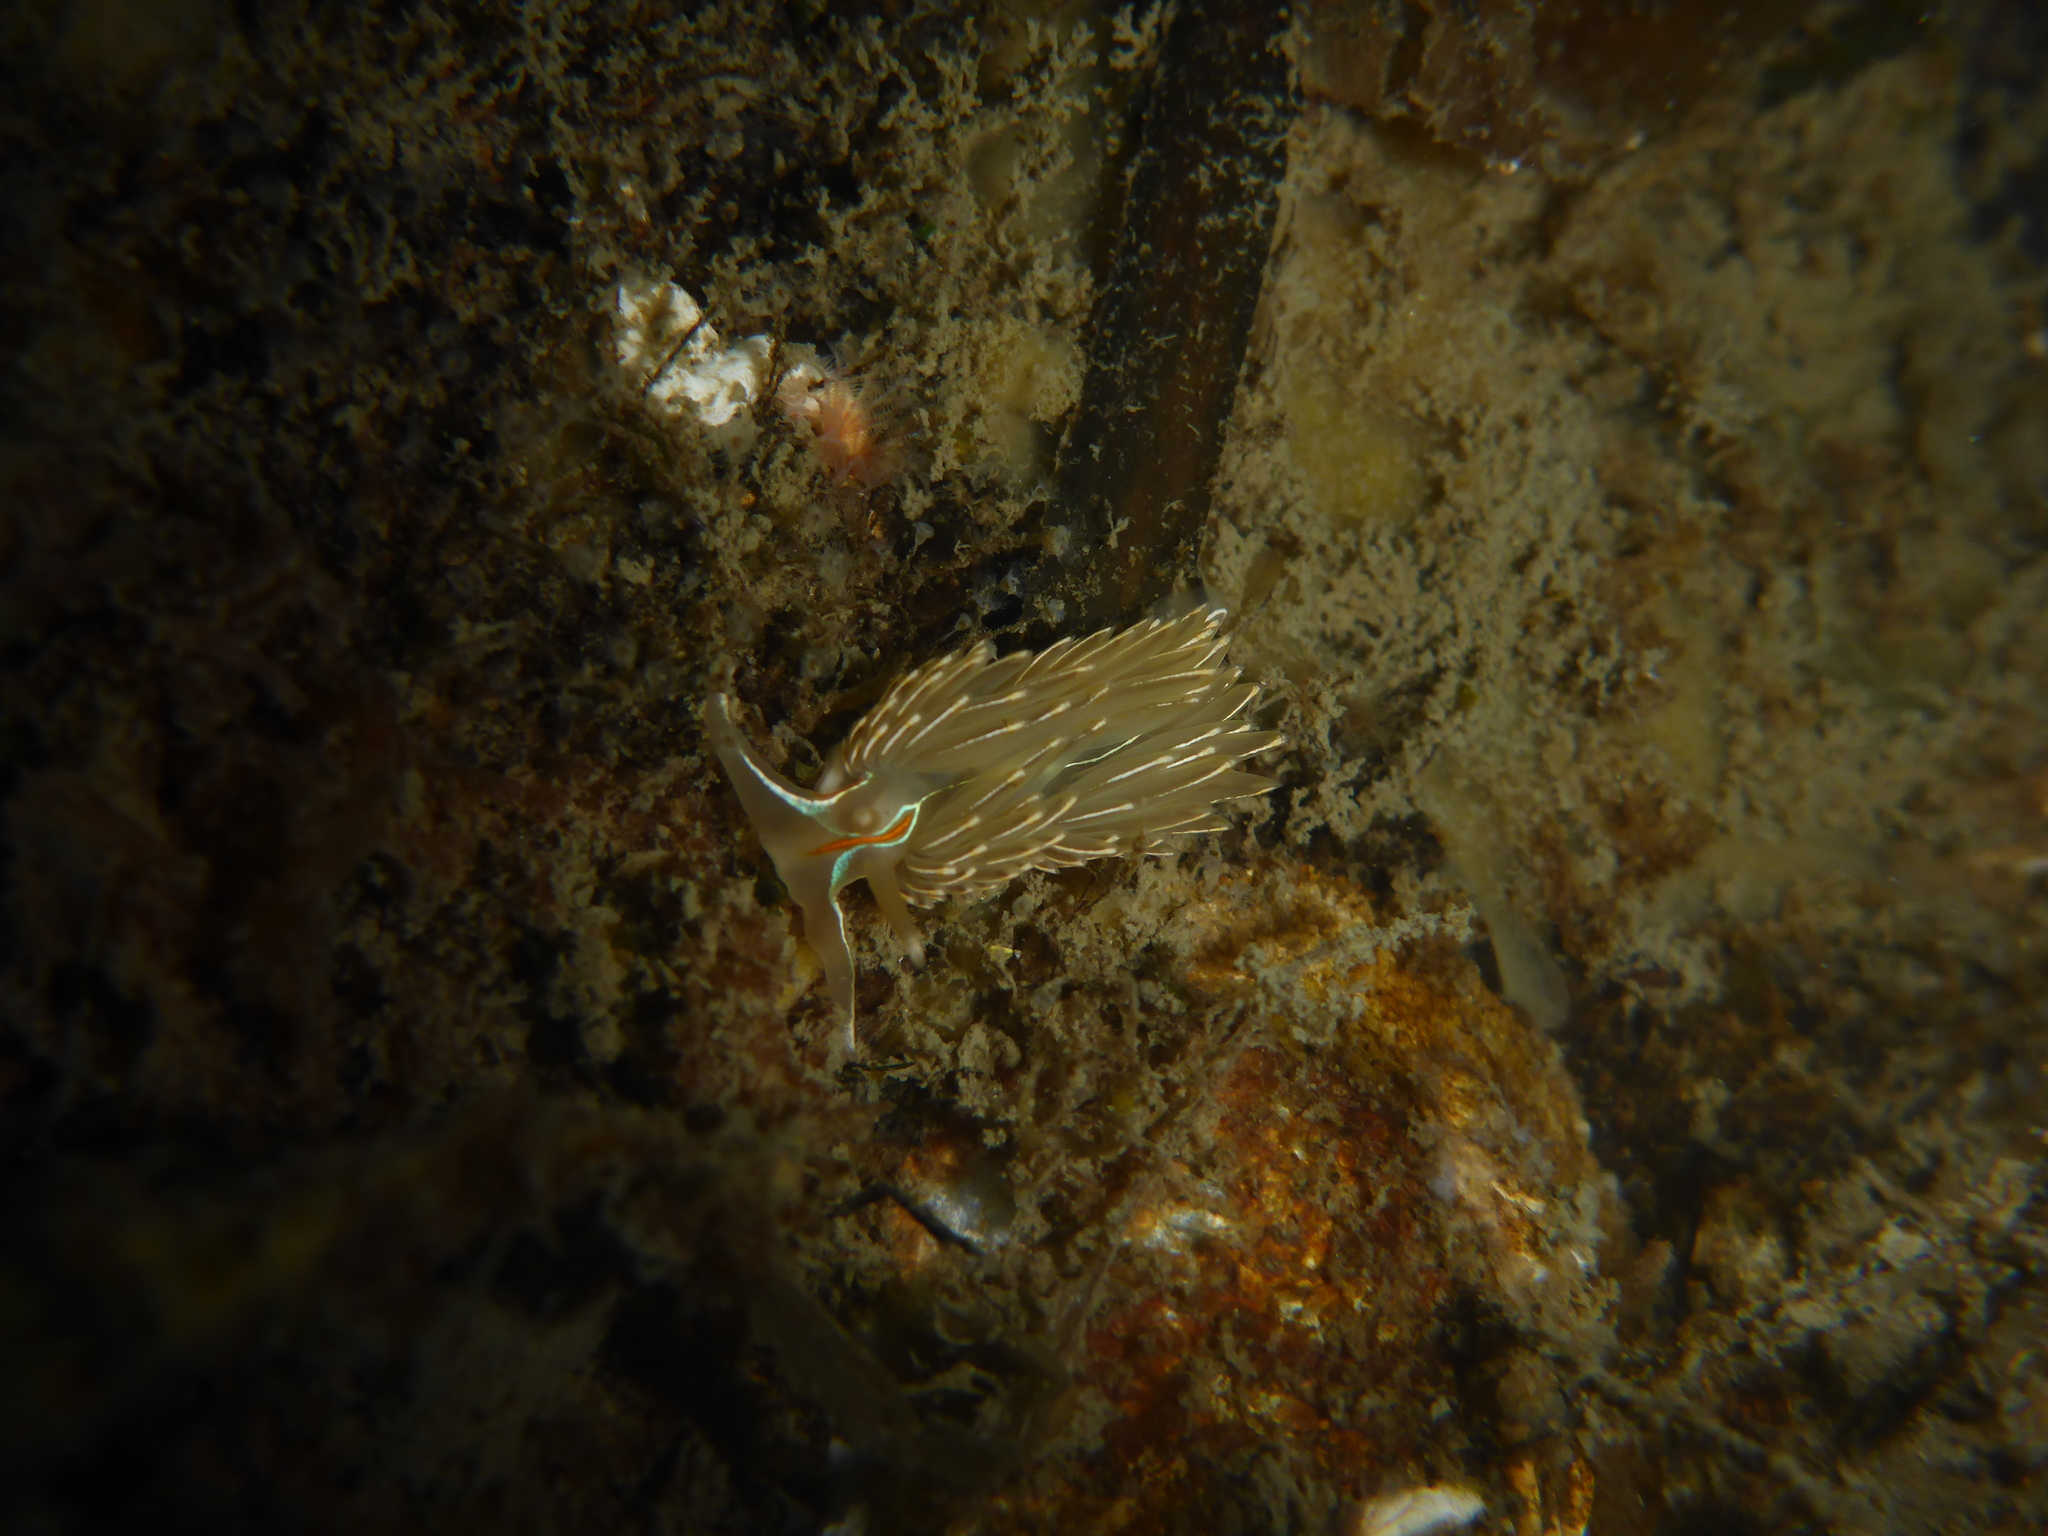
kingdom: Animalia
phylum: Mollusca
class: Gastropoda
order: Nudibranchia
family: Myrrhinidae
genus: Hermissenda
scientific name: Hermissenda crassicornis
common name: Hermissenda
